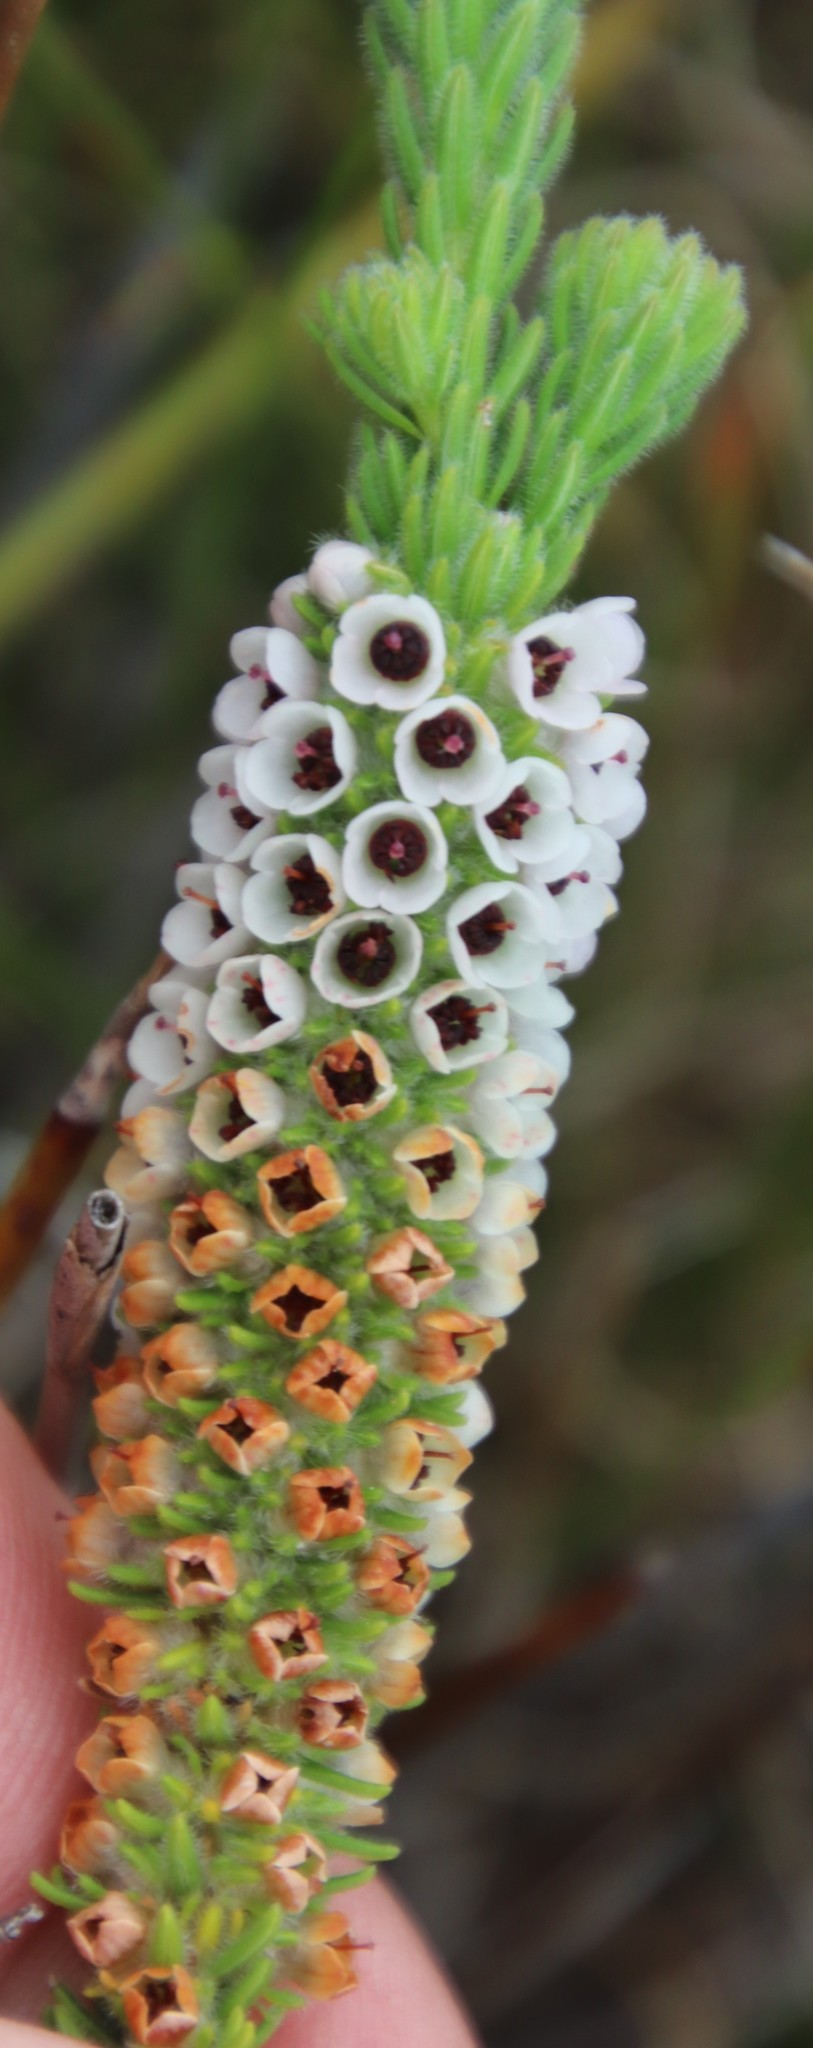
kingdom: Plantae
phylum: Tracheophyta
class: Magnoliopsida
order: Ericales
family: Ericaceae
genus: Erica
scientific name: Erica pyxidiflora
